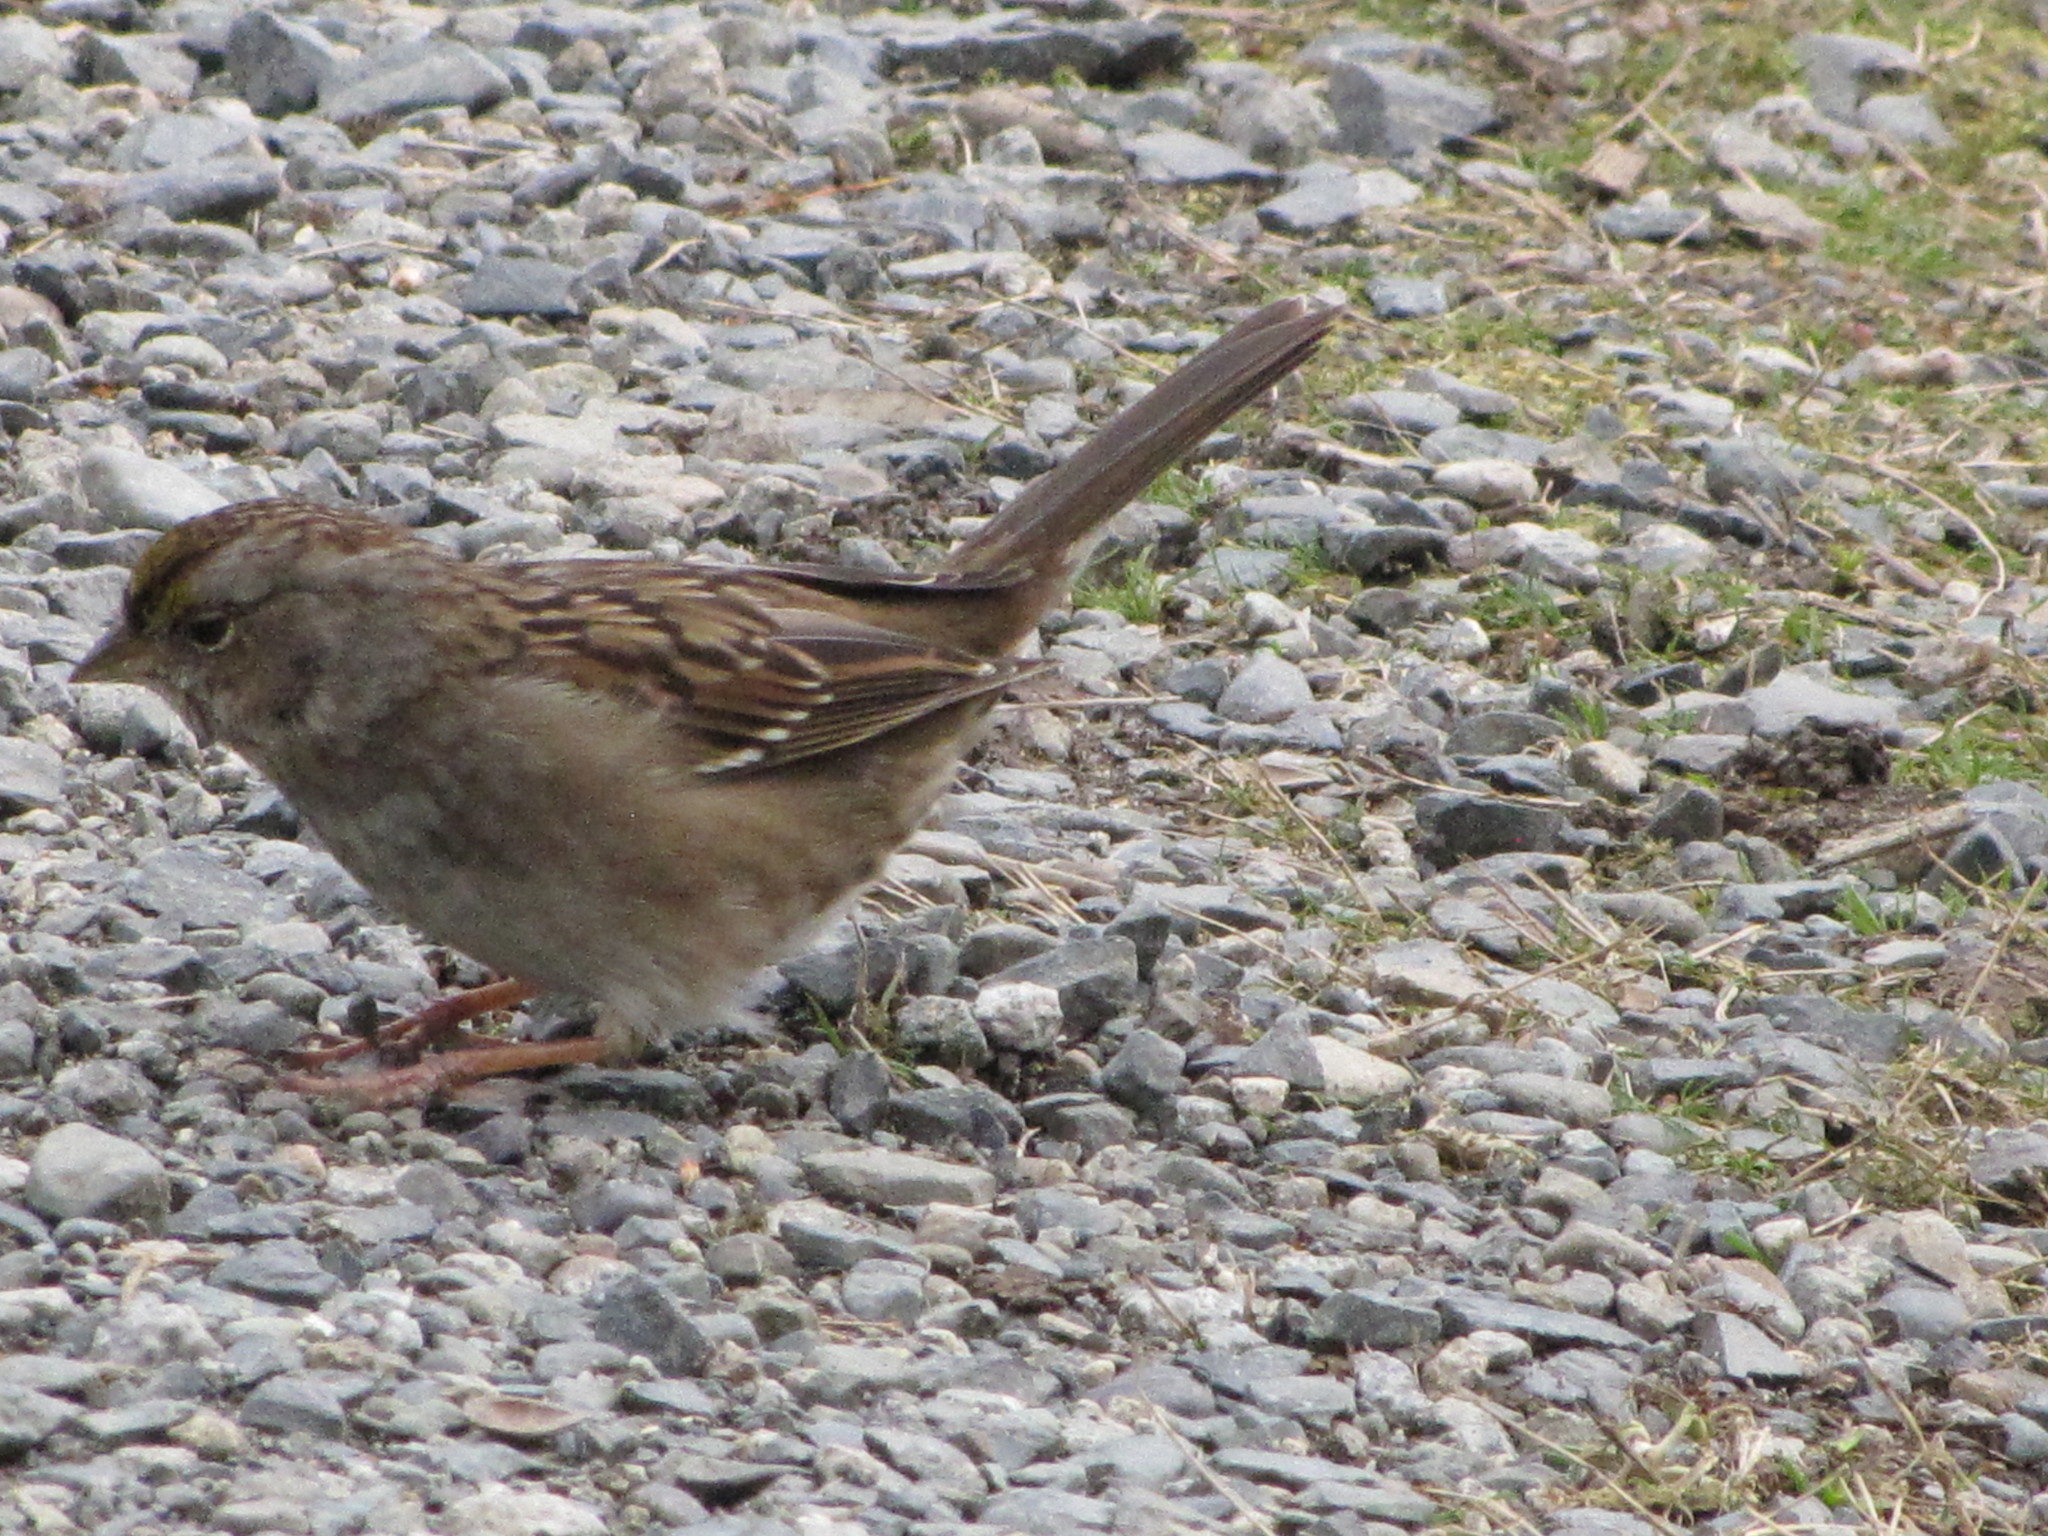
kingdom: Animalia
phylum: Chordata
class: Aves
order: Passeriformes
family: Passerellidae
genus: Zonotrichia
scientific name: Zonotrichia atricapilla
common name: Golden-crowned sparrow
